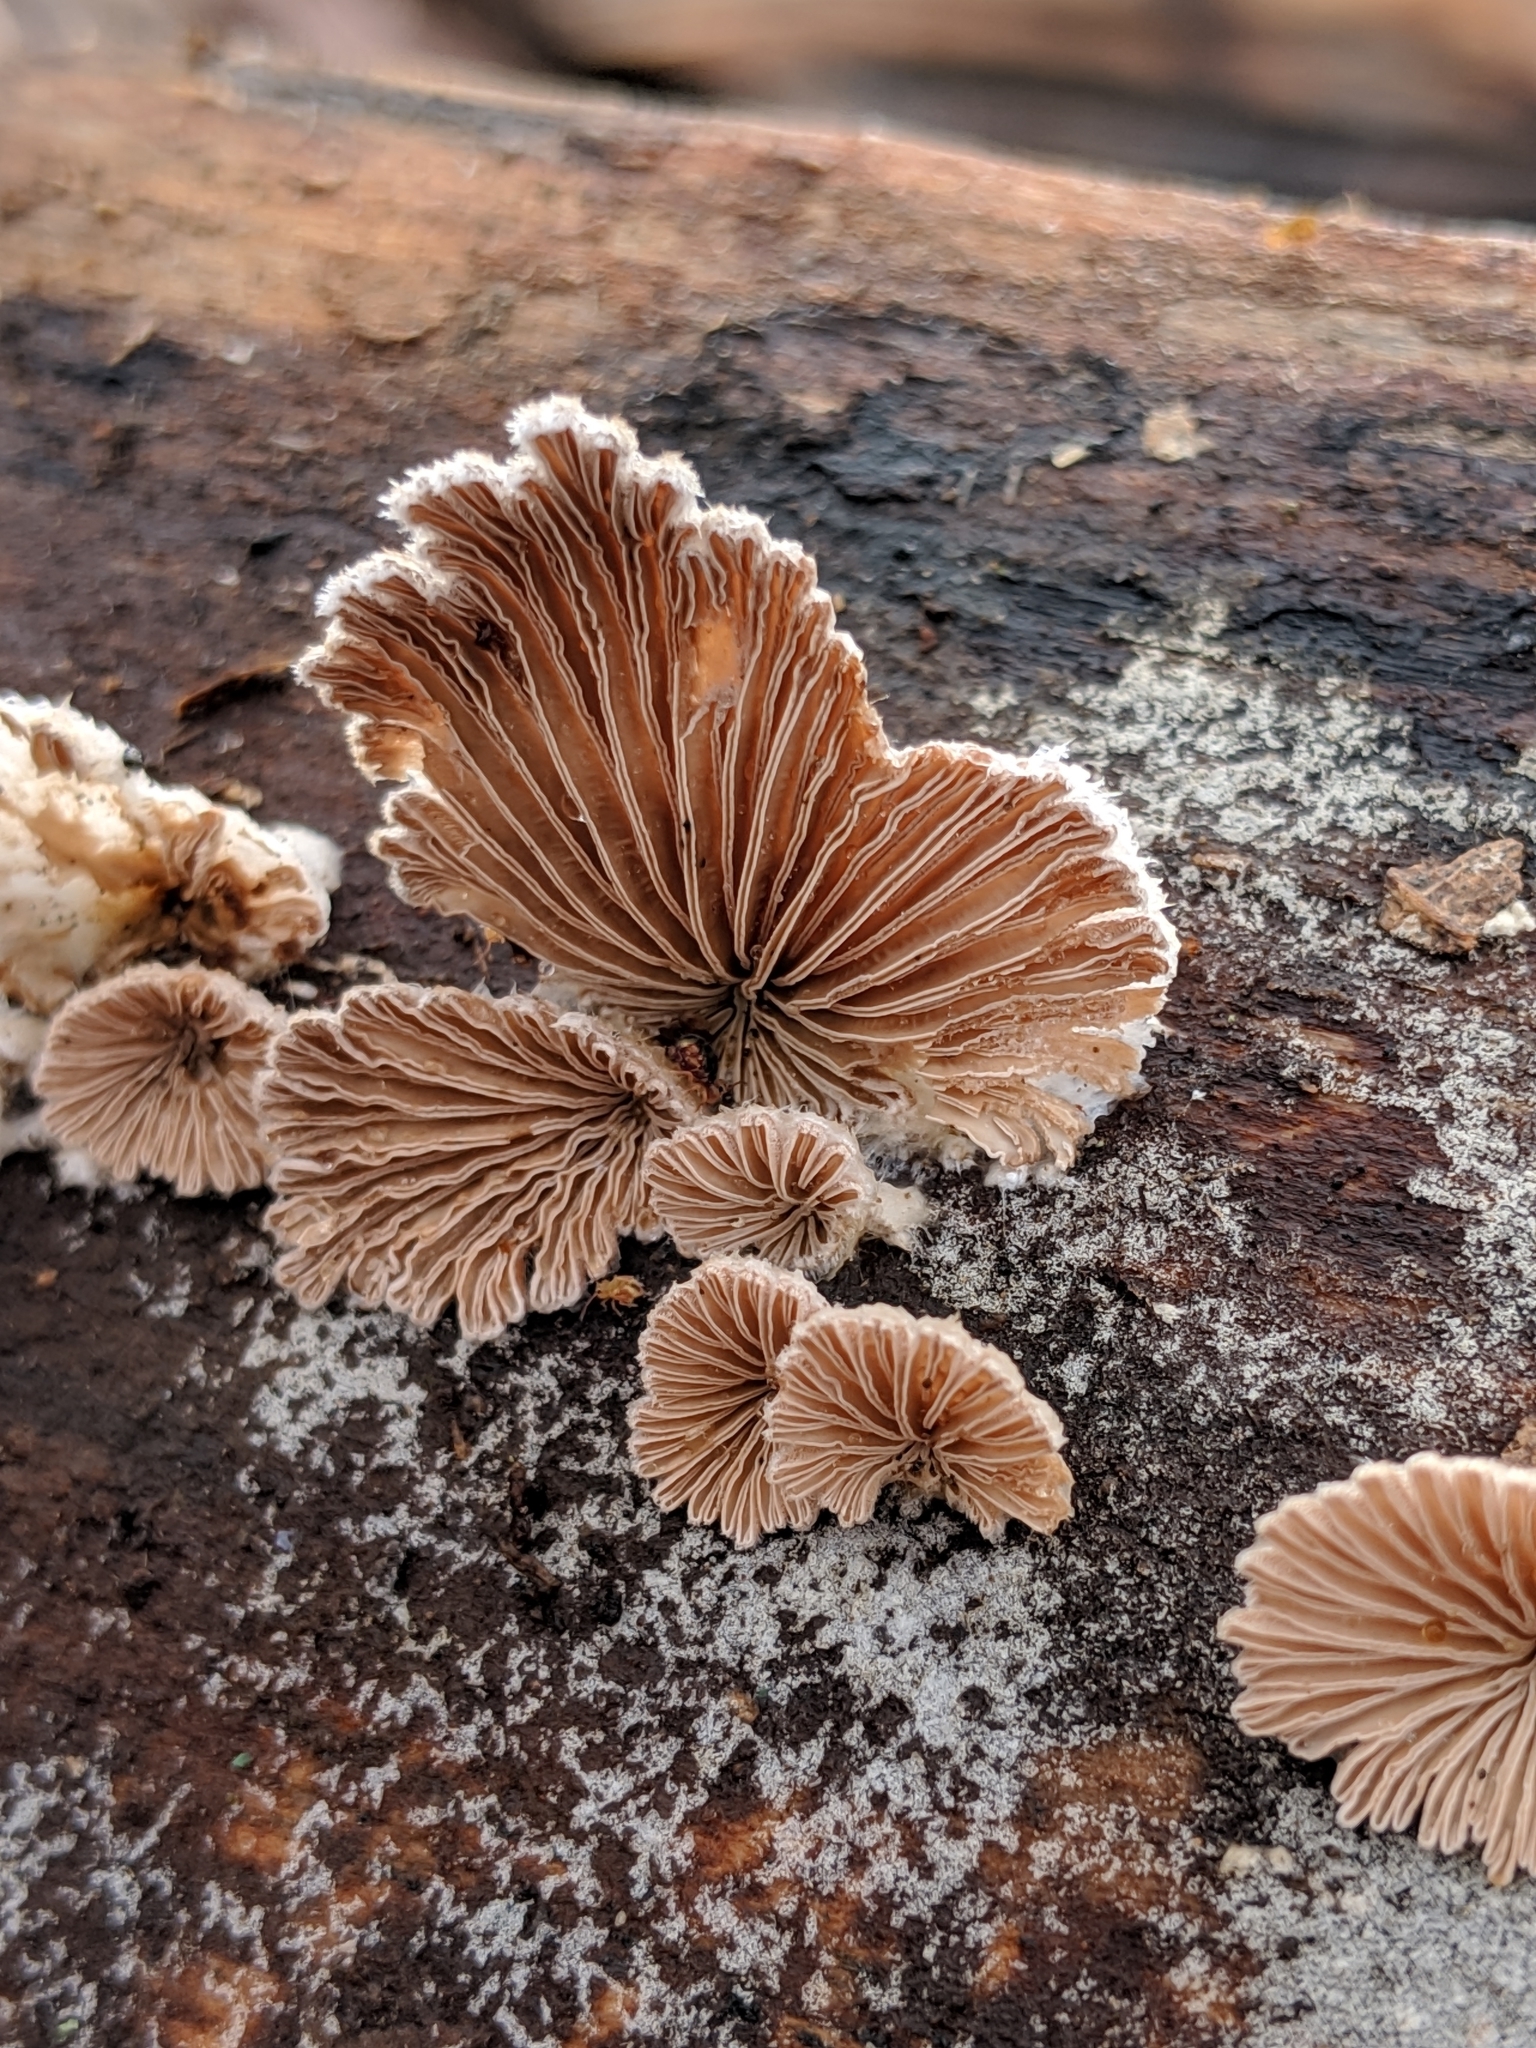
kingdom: Fungi
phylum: Basidiomycota
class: Agaricomycetes
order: Agaricales
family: Schizophyllaceae
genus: Schizophyllum
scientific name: Schizophyllum commune
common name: Common porecrust
